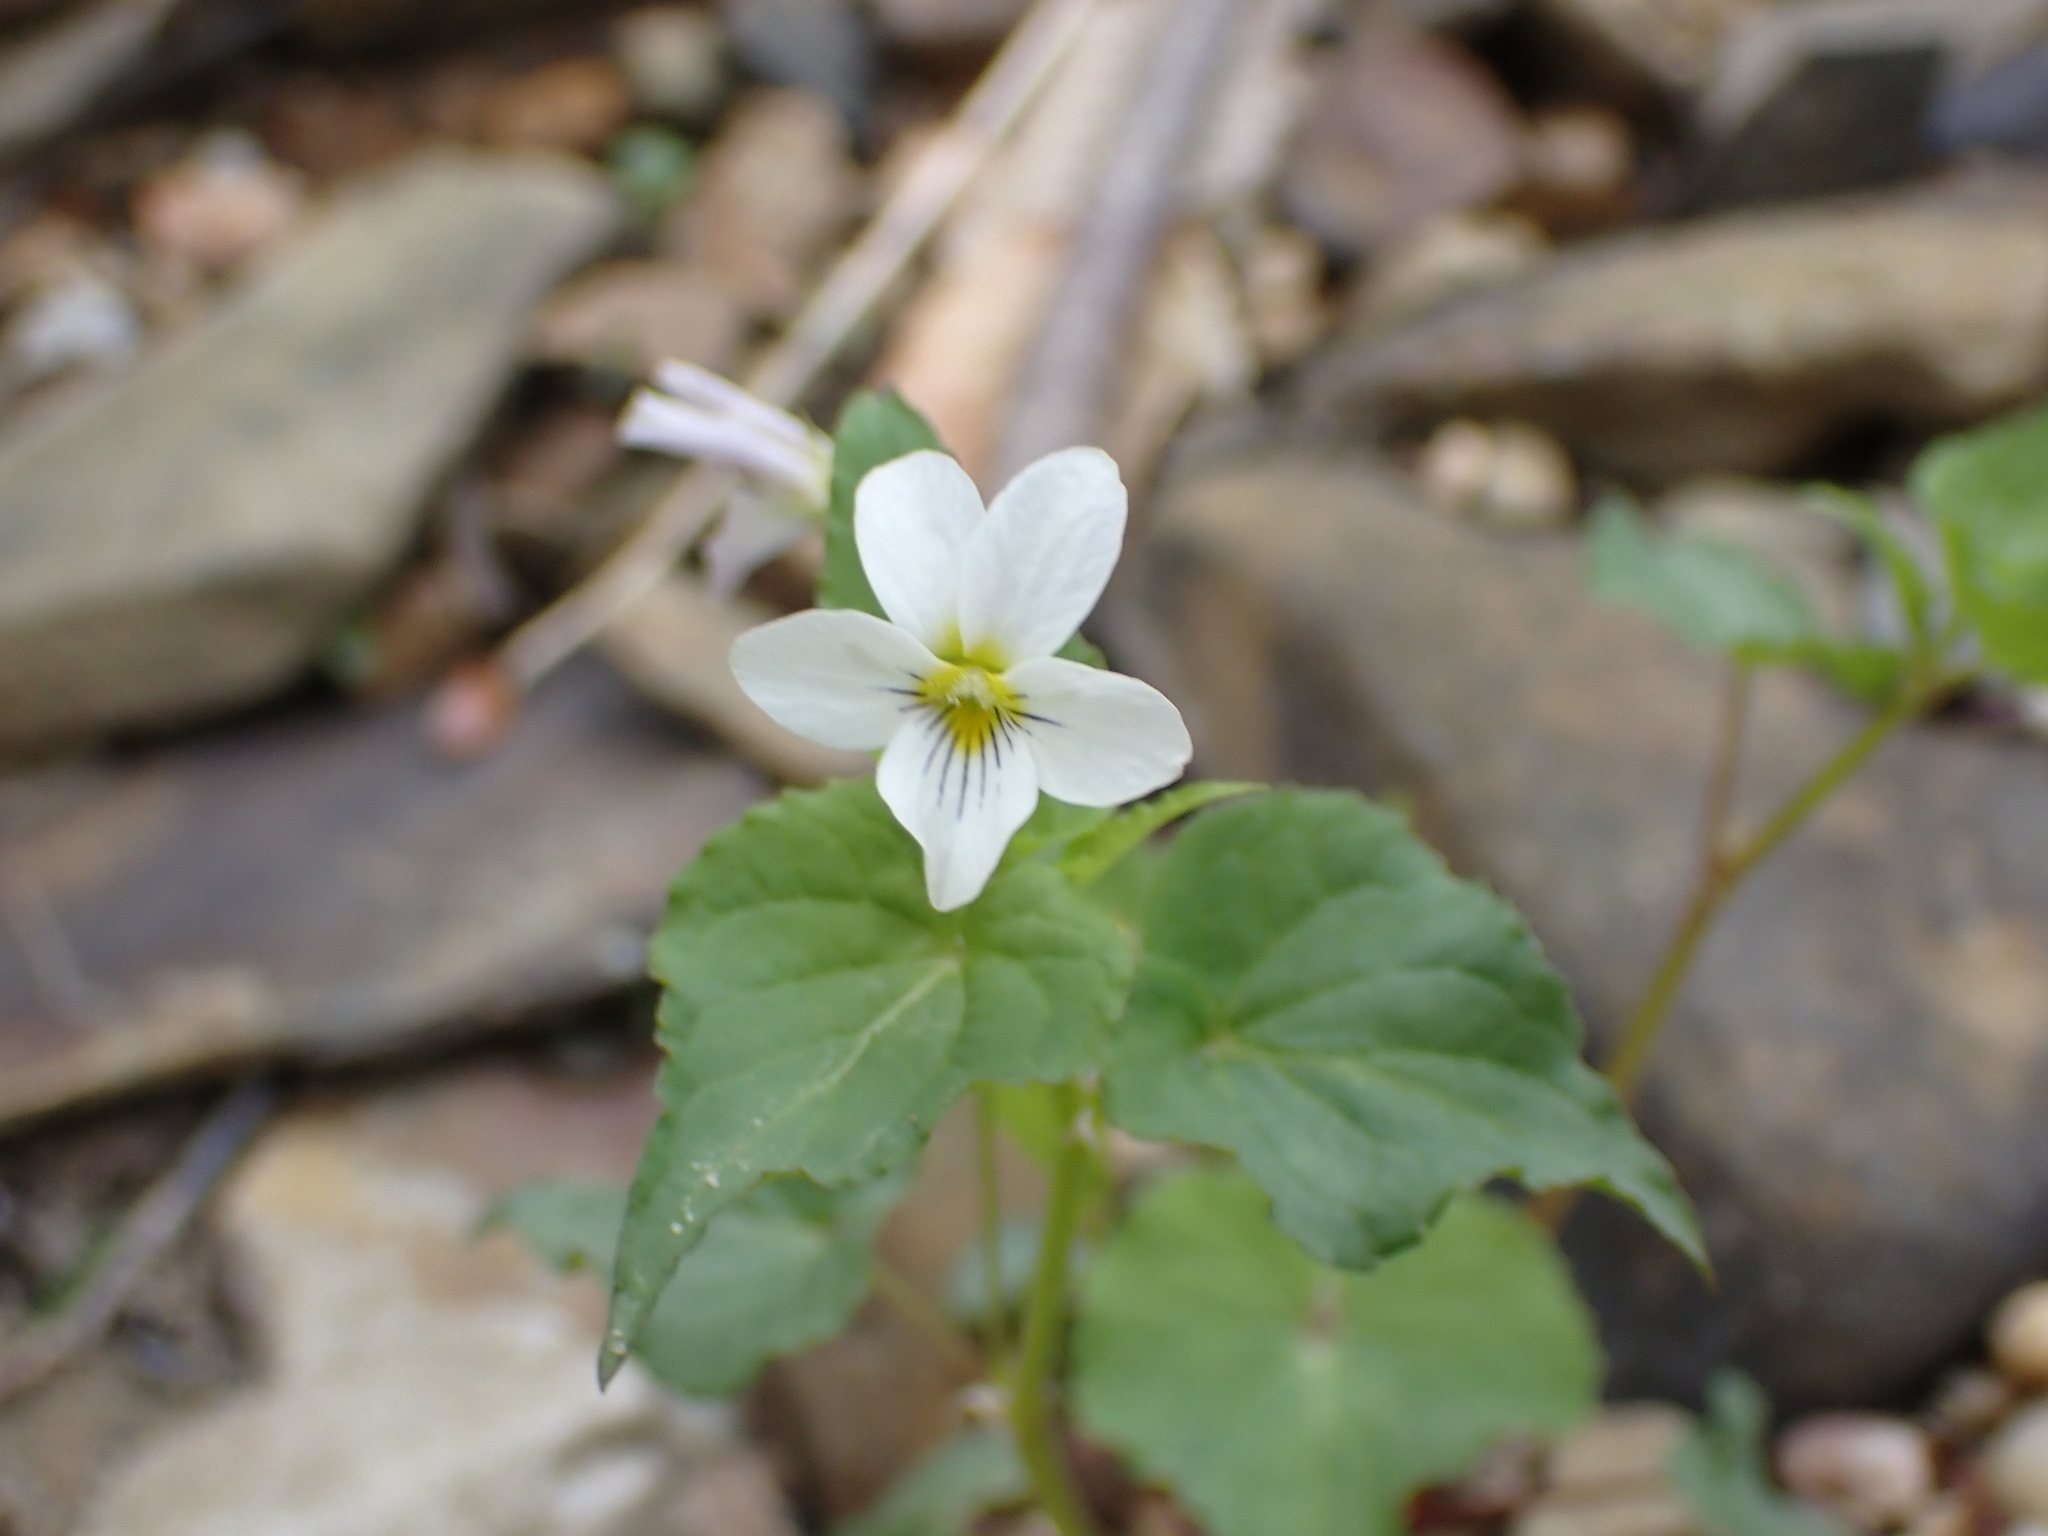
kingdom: Plantae
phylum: Tracheophyta
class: Magnoliopsida
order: Malpighiales
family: Violaceae
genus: Viola
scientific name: Viola canadensis
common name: Canada violet
